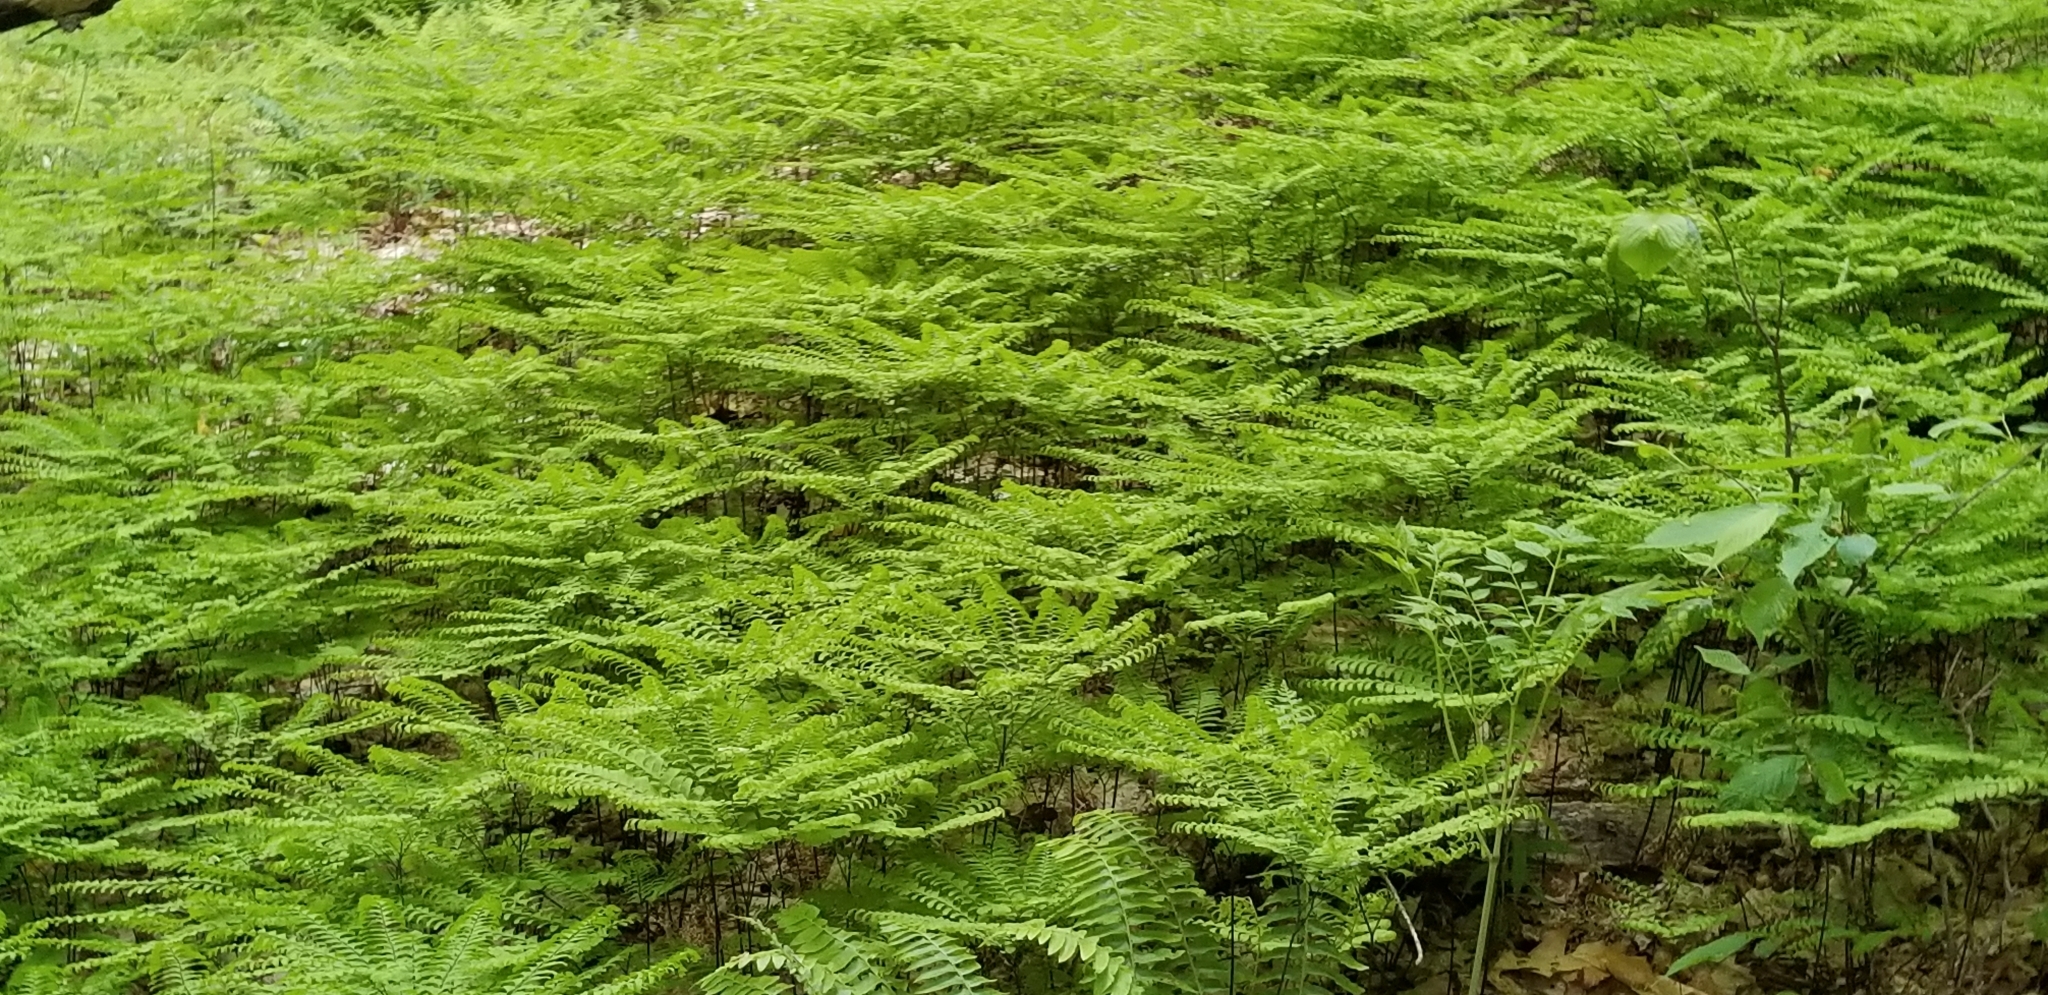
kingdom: Plantae
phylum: Tracheophyta
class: Polypodiopsida
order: Polypodiales
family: Pteridaceae
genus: Adiantum
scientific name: Adiantum pedatum
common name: Five-finger fern
